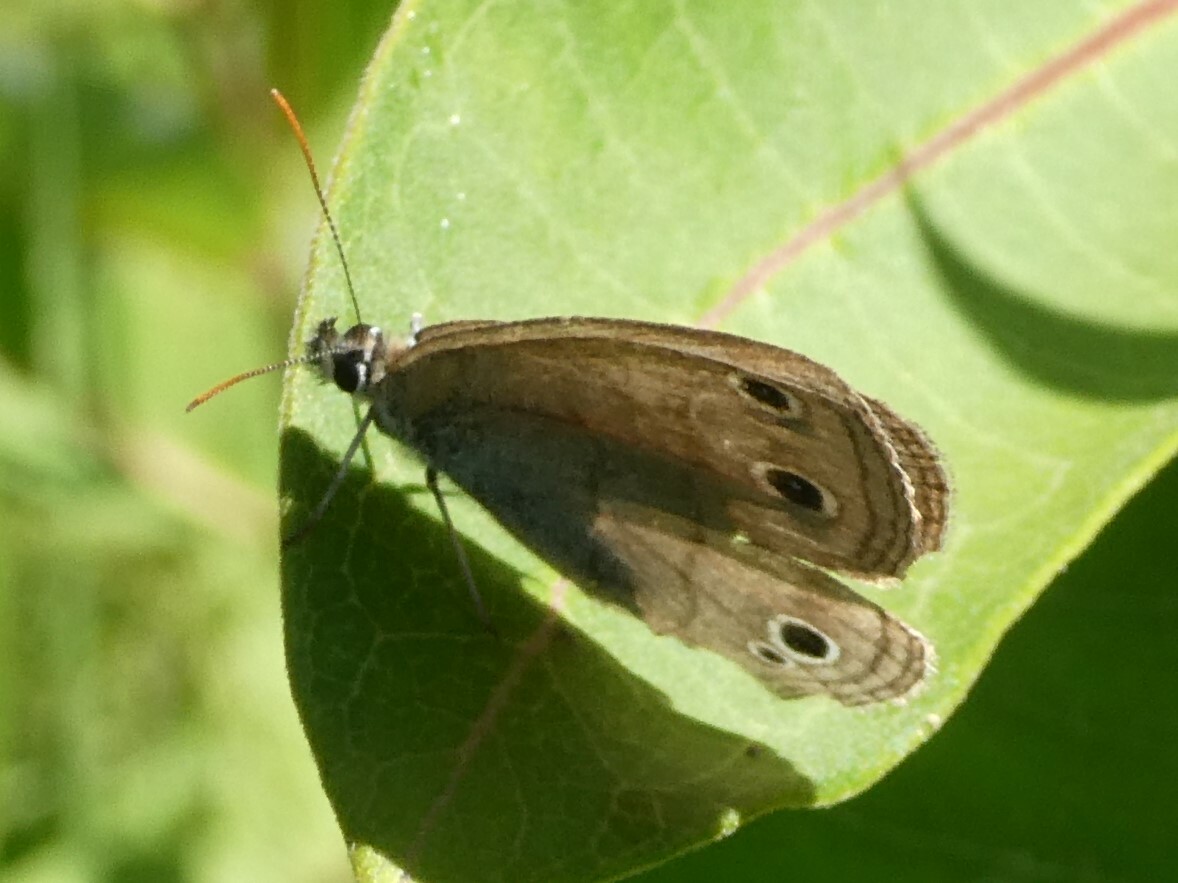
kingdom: Animalia
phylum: Arthropoda
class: Insecta
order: Lepidoptera
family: Nymphalidae
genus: Euptychia
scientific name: Euptychia cymela
